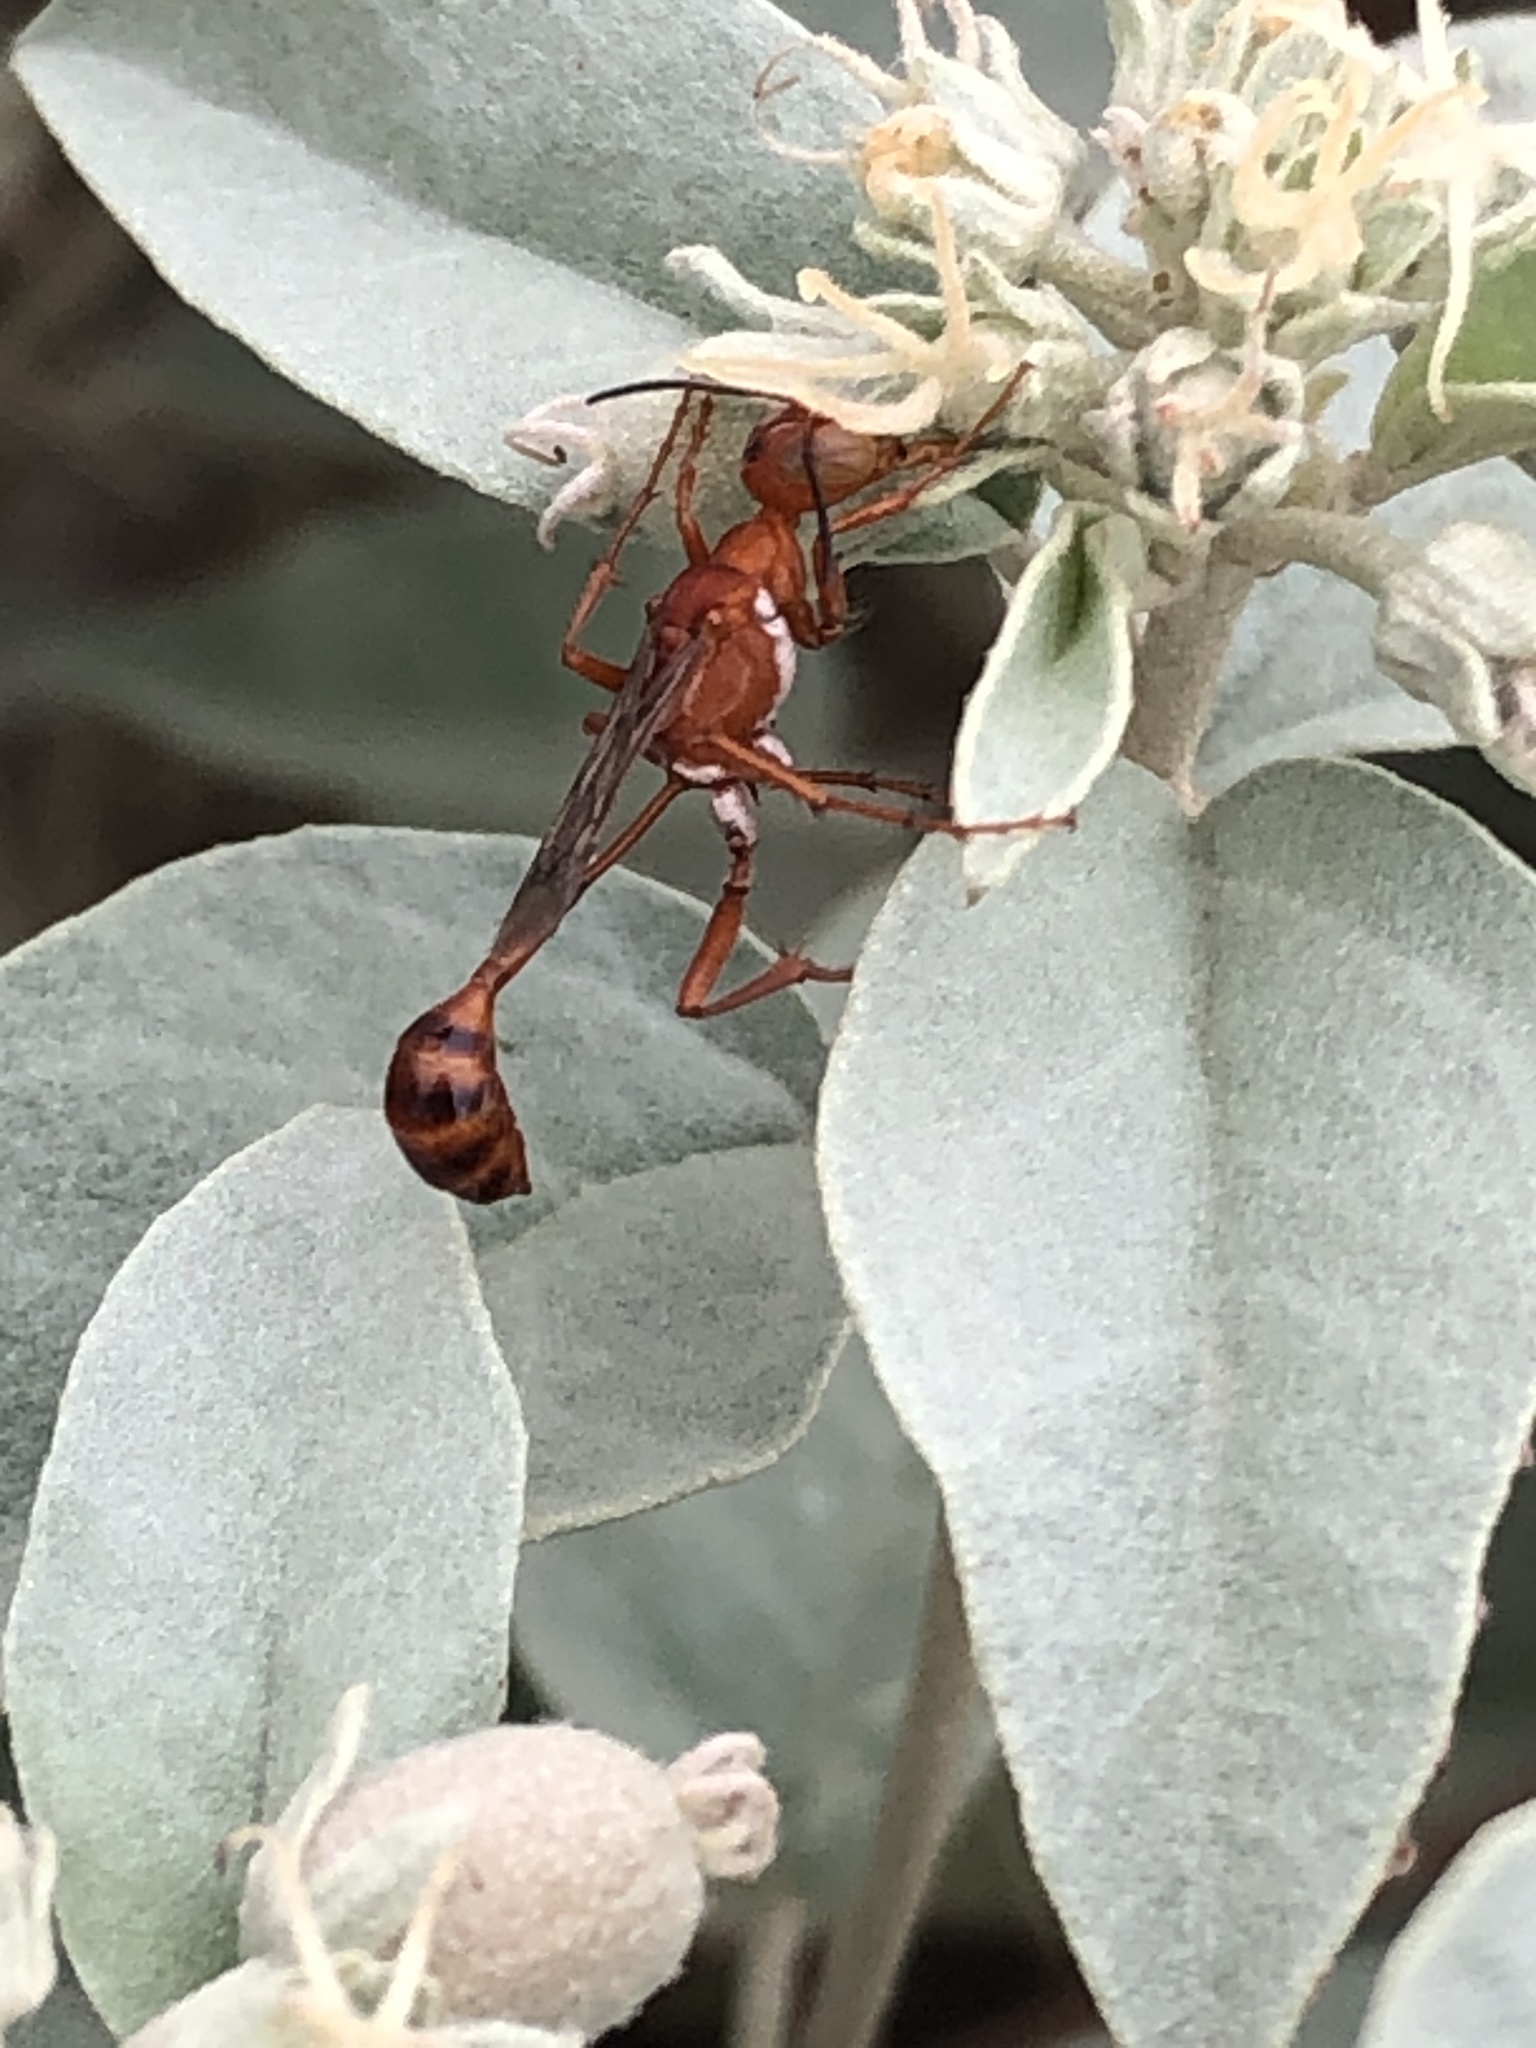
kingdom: Animalia
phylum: Arthropoda
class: Insecta
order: Hymenoptera
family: Sphecidae
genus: Ammophila
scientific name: Ammophila wrightii
